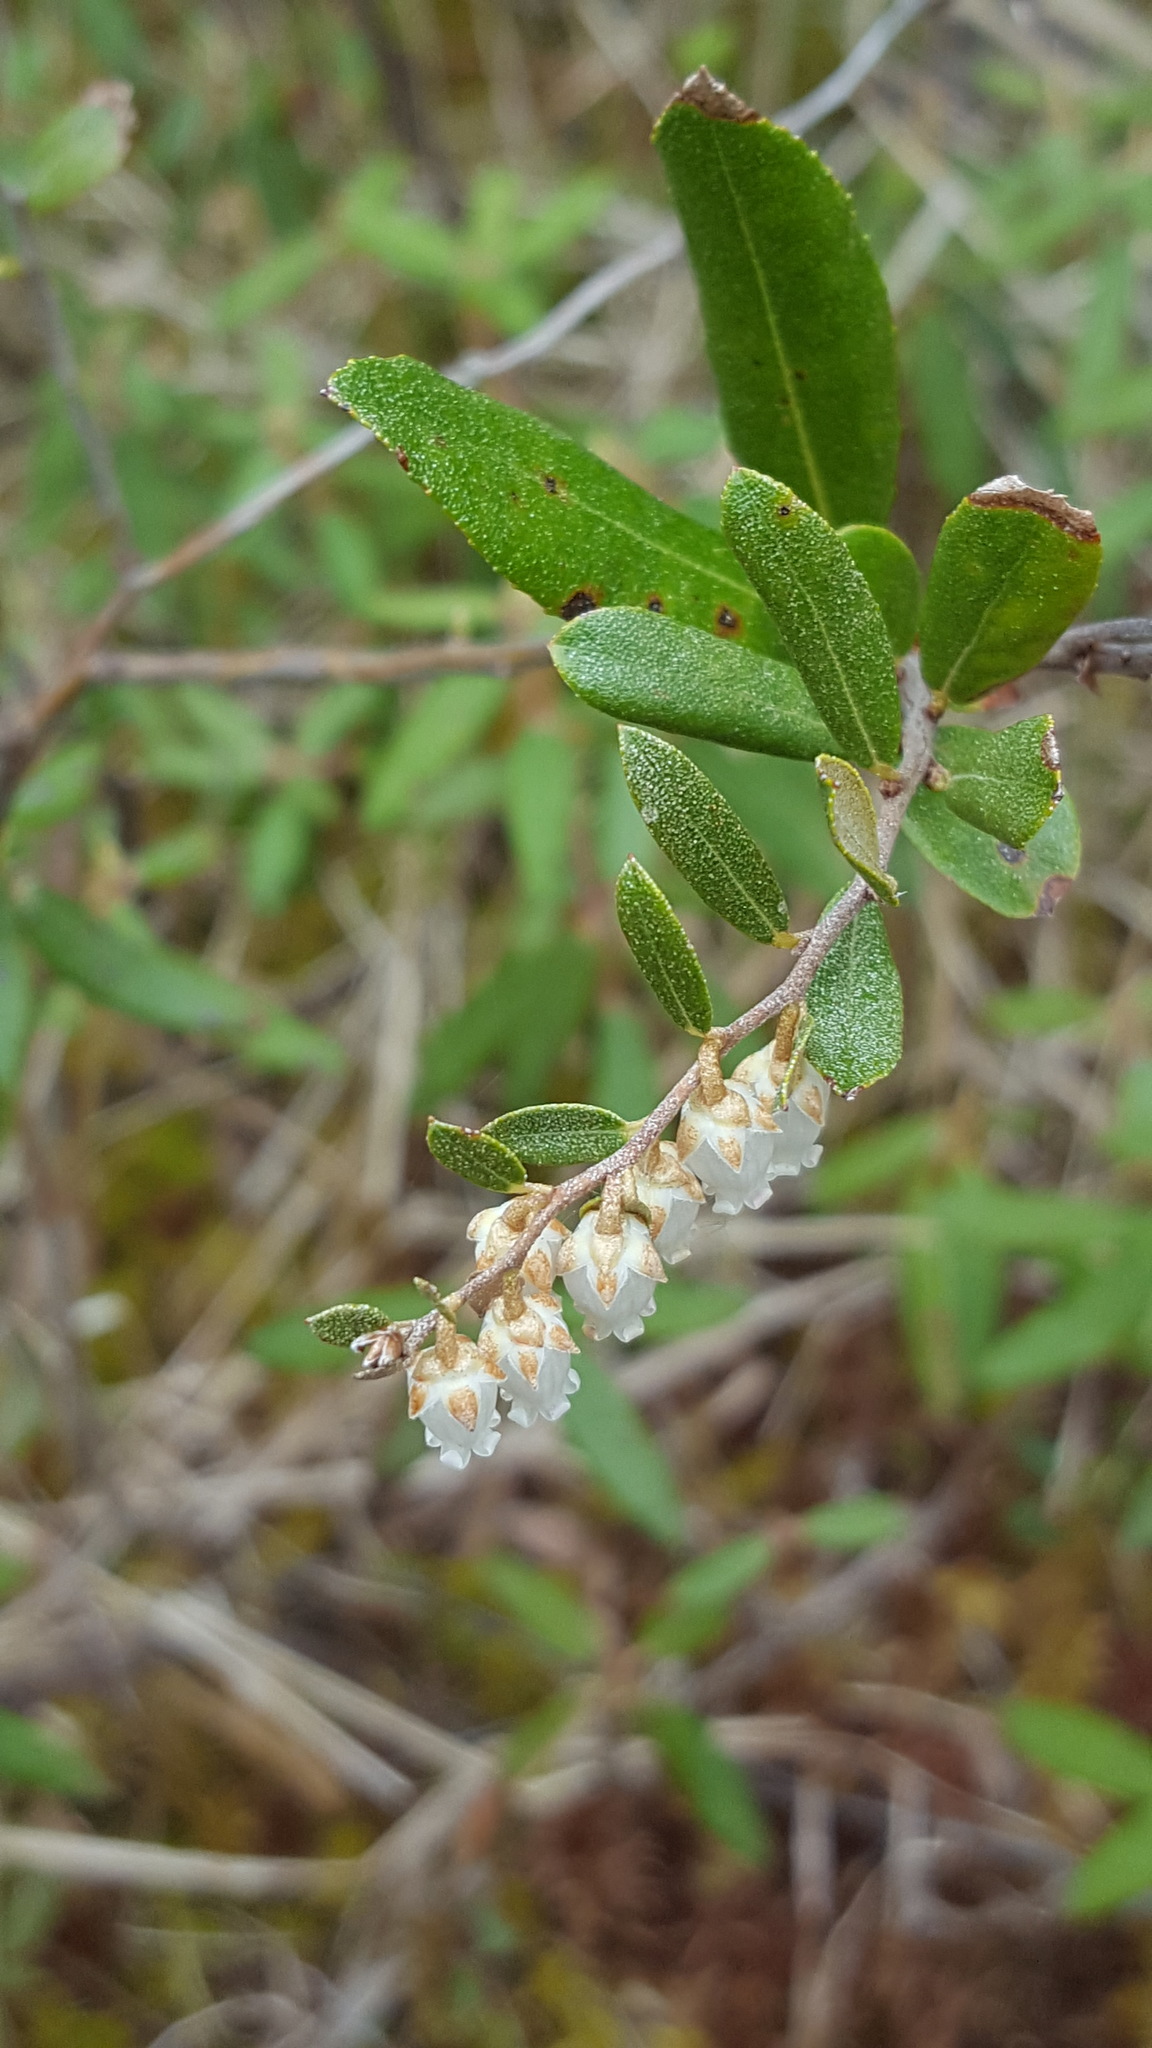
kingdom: Plantae
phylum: Tracheophyta
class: Magnoliopsida
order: Ericales
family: Ericaceae
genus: Chamaedaphne
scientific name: Chamaedaphne calyculata
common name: Leatherleaf
